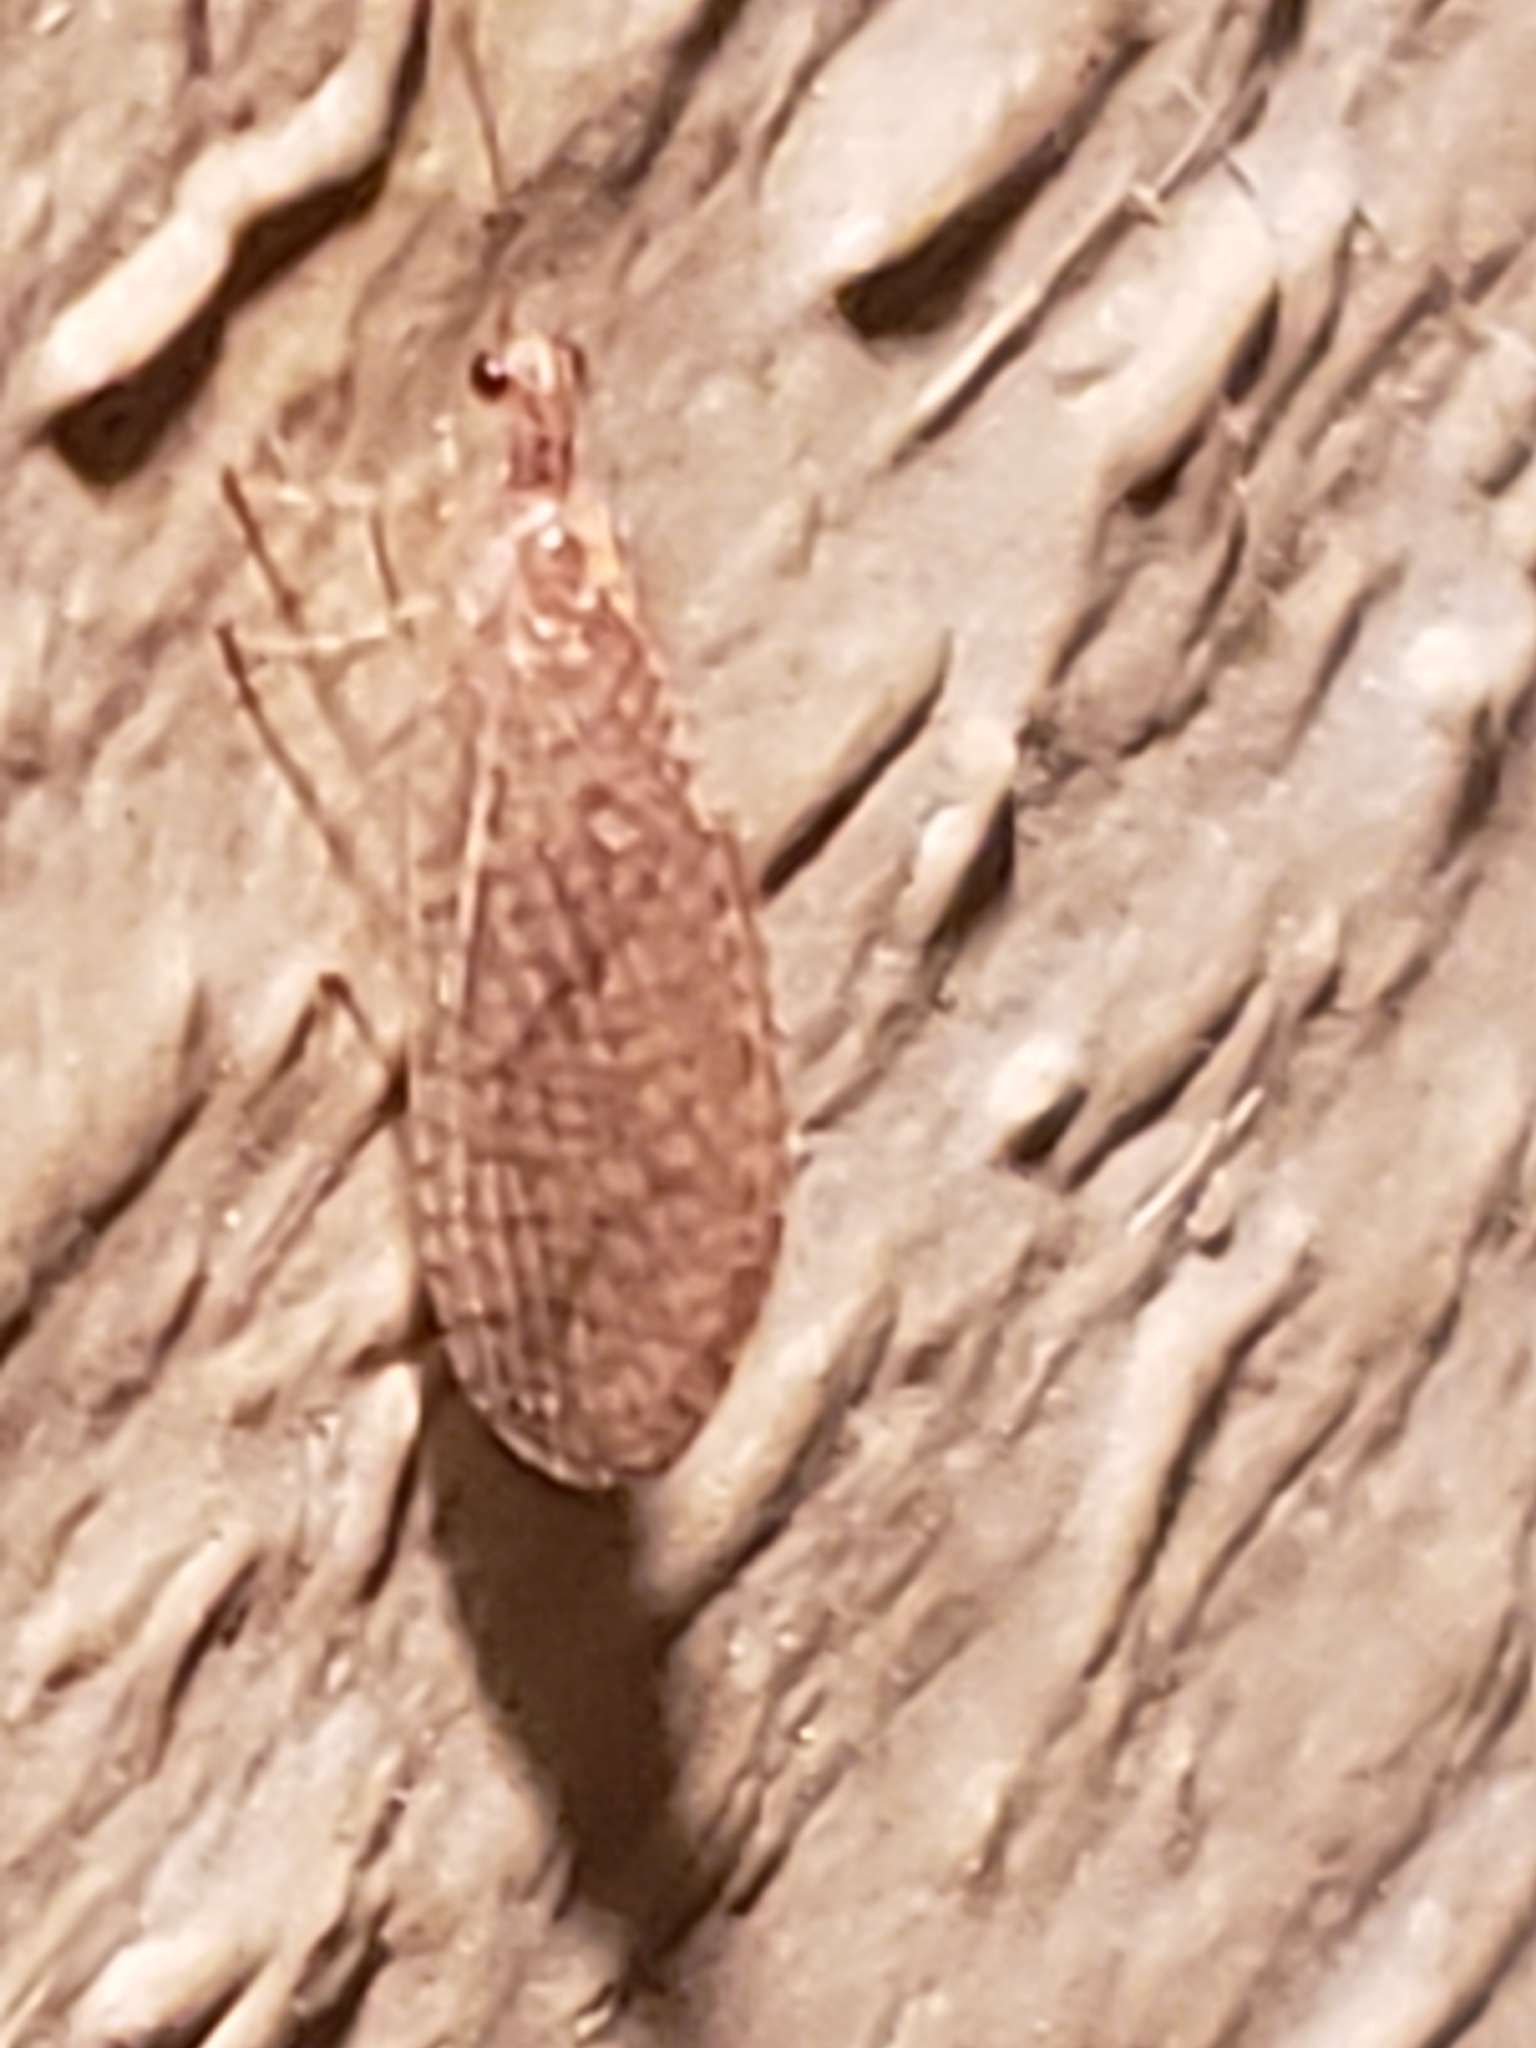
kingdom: Animalia
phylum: Arthropoda
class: Insecta
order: Neuroptera
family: Hemerobiidae
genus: Micromus
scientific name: Micromus posticus
